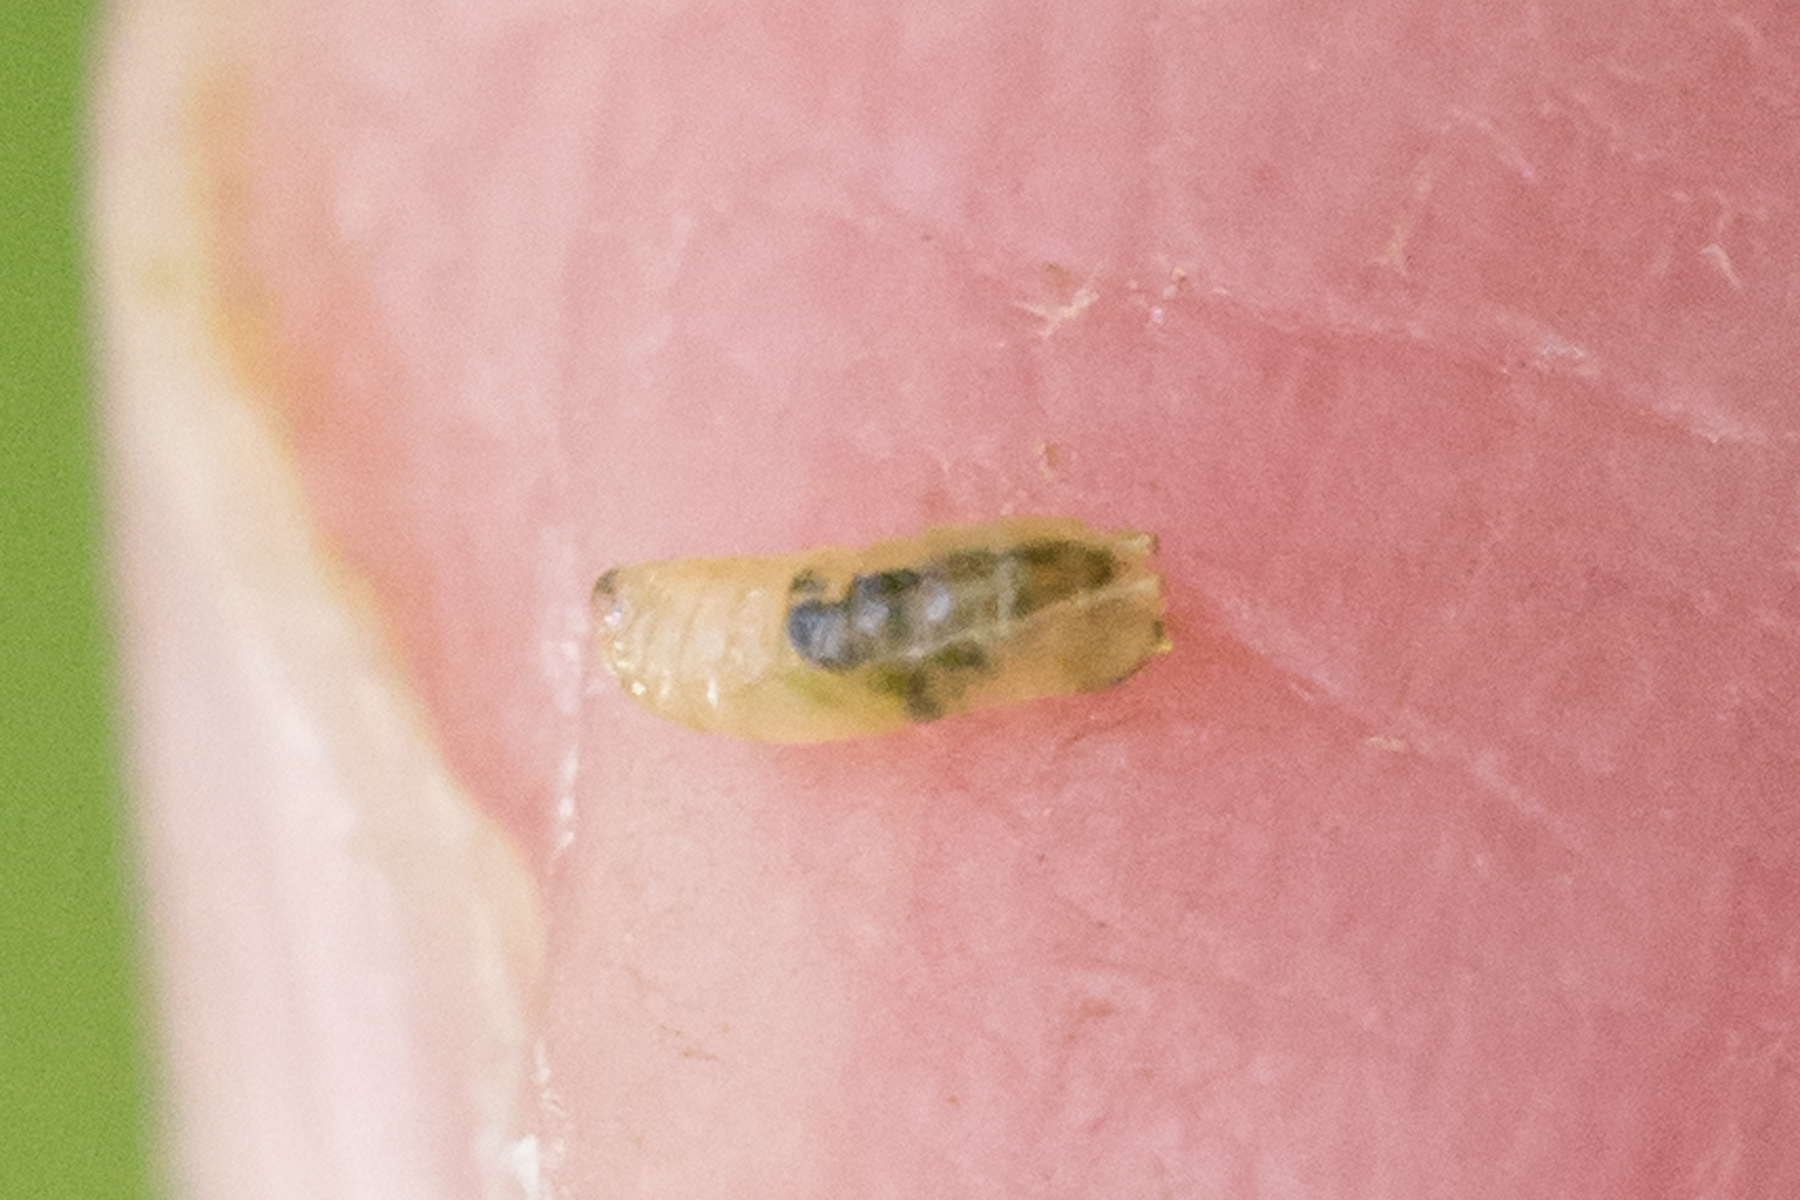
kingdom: Animalia
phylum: Arthropoda
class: Insecta
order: Diptera
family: Agromyzidae
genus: Agromyza
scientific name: Agromyza aristata
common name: Elm agromyzid leafminer
